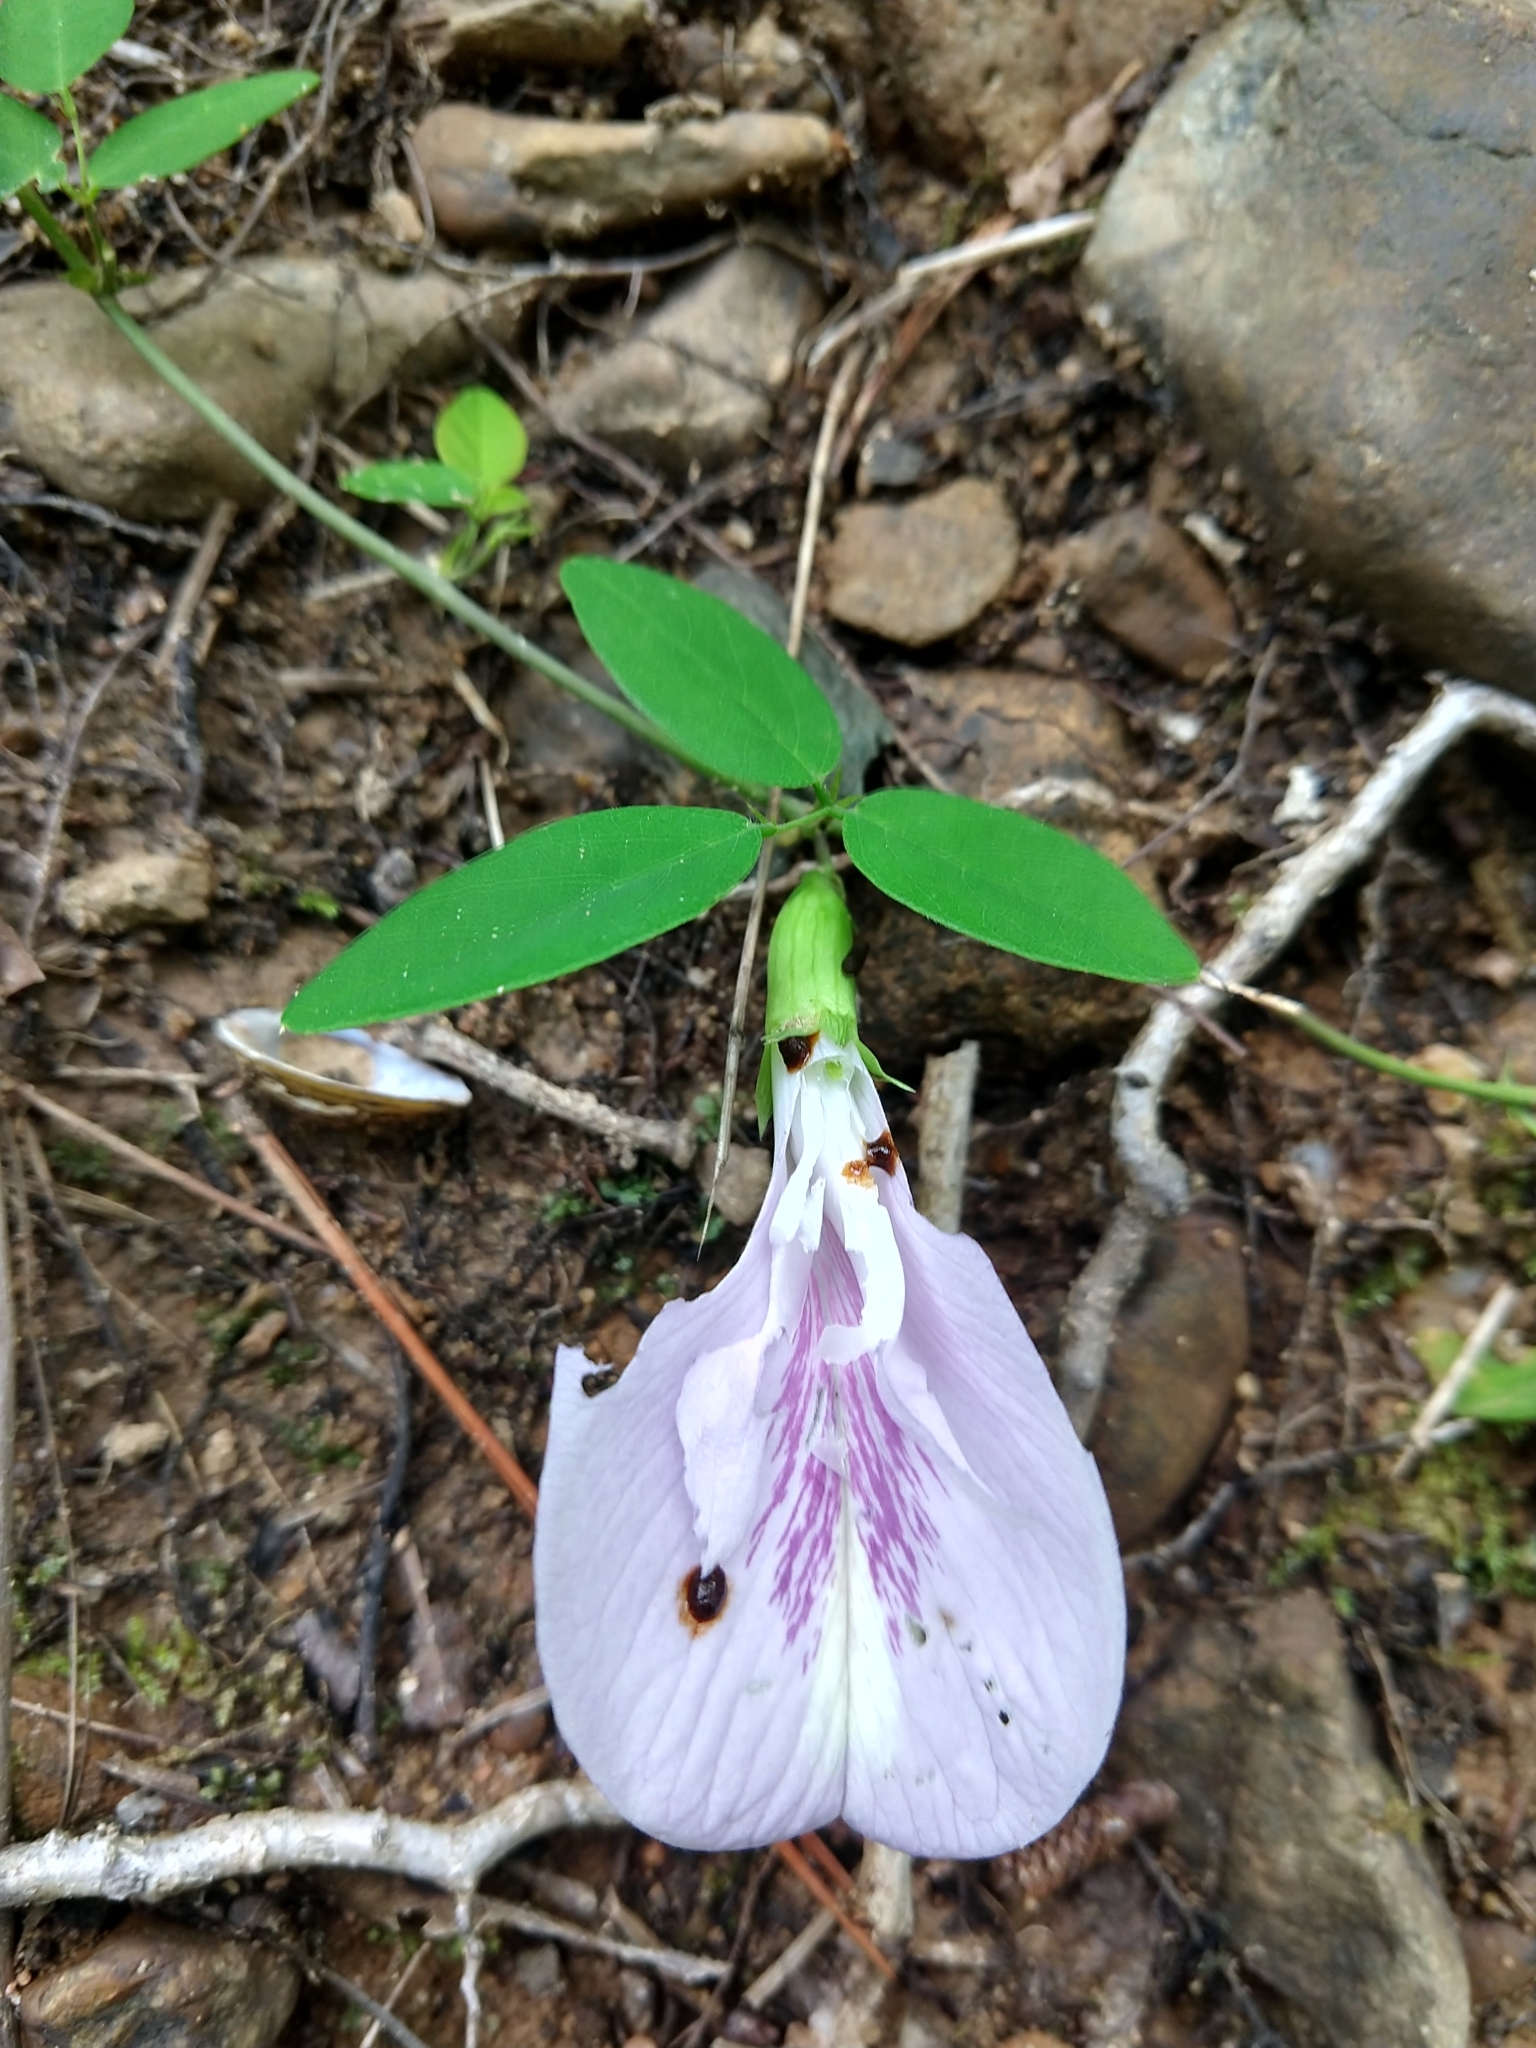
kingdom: Plantae
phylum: Tracheophyta
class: Magnoliopsida
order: Fabales
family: Fabaceae
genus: Clitoria
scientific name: Clitoria mariana
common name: Butterfly-pea
